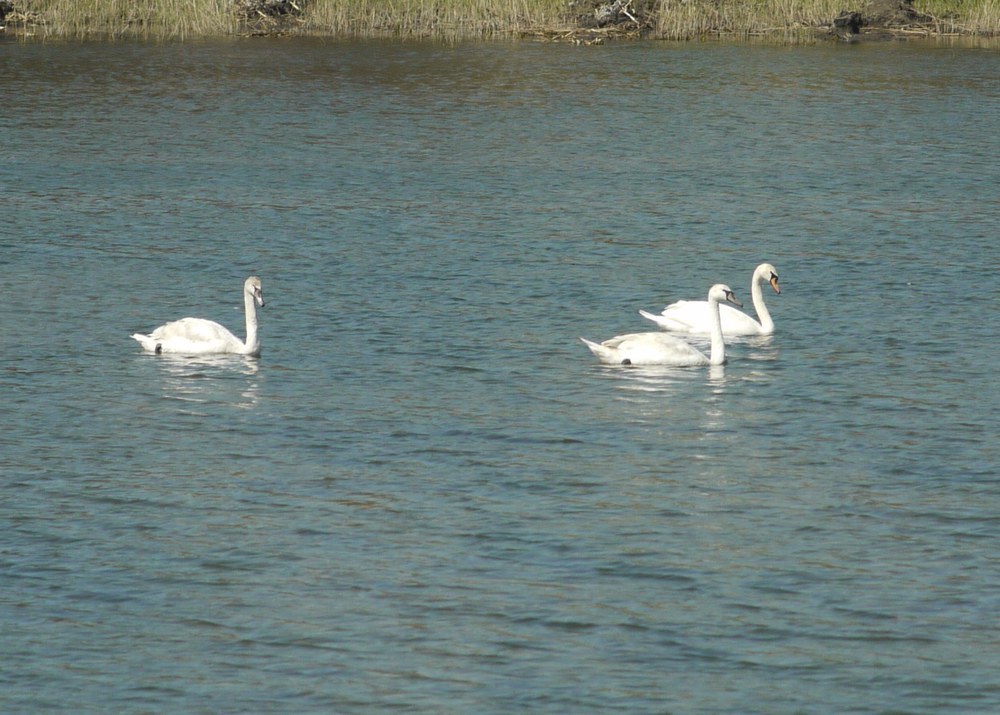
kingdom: Animalia
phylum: Chordata
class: Aves
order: Anseriformes
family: Anatidae
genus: Cygnus
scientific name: Cygnus olor
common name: Mute swan
